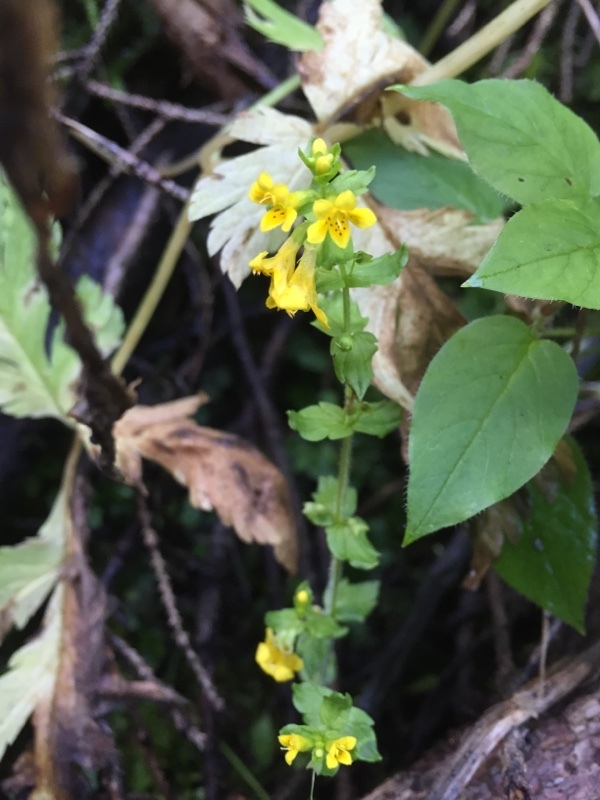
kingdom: Plantae
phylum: Tracheophyta
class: Magnoliopsida
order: Lamiales
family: Orobanchaceae
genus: Tozzia
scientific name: Tozzia alpina
